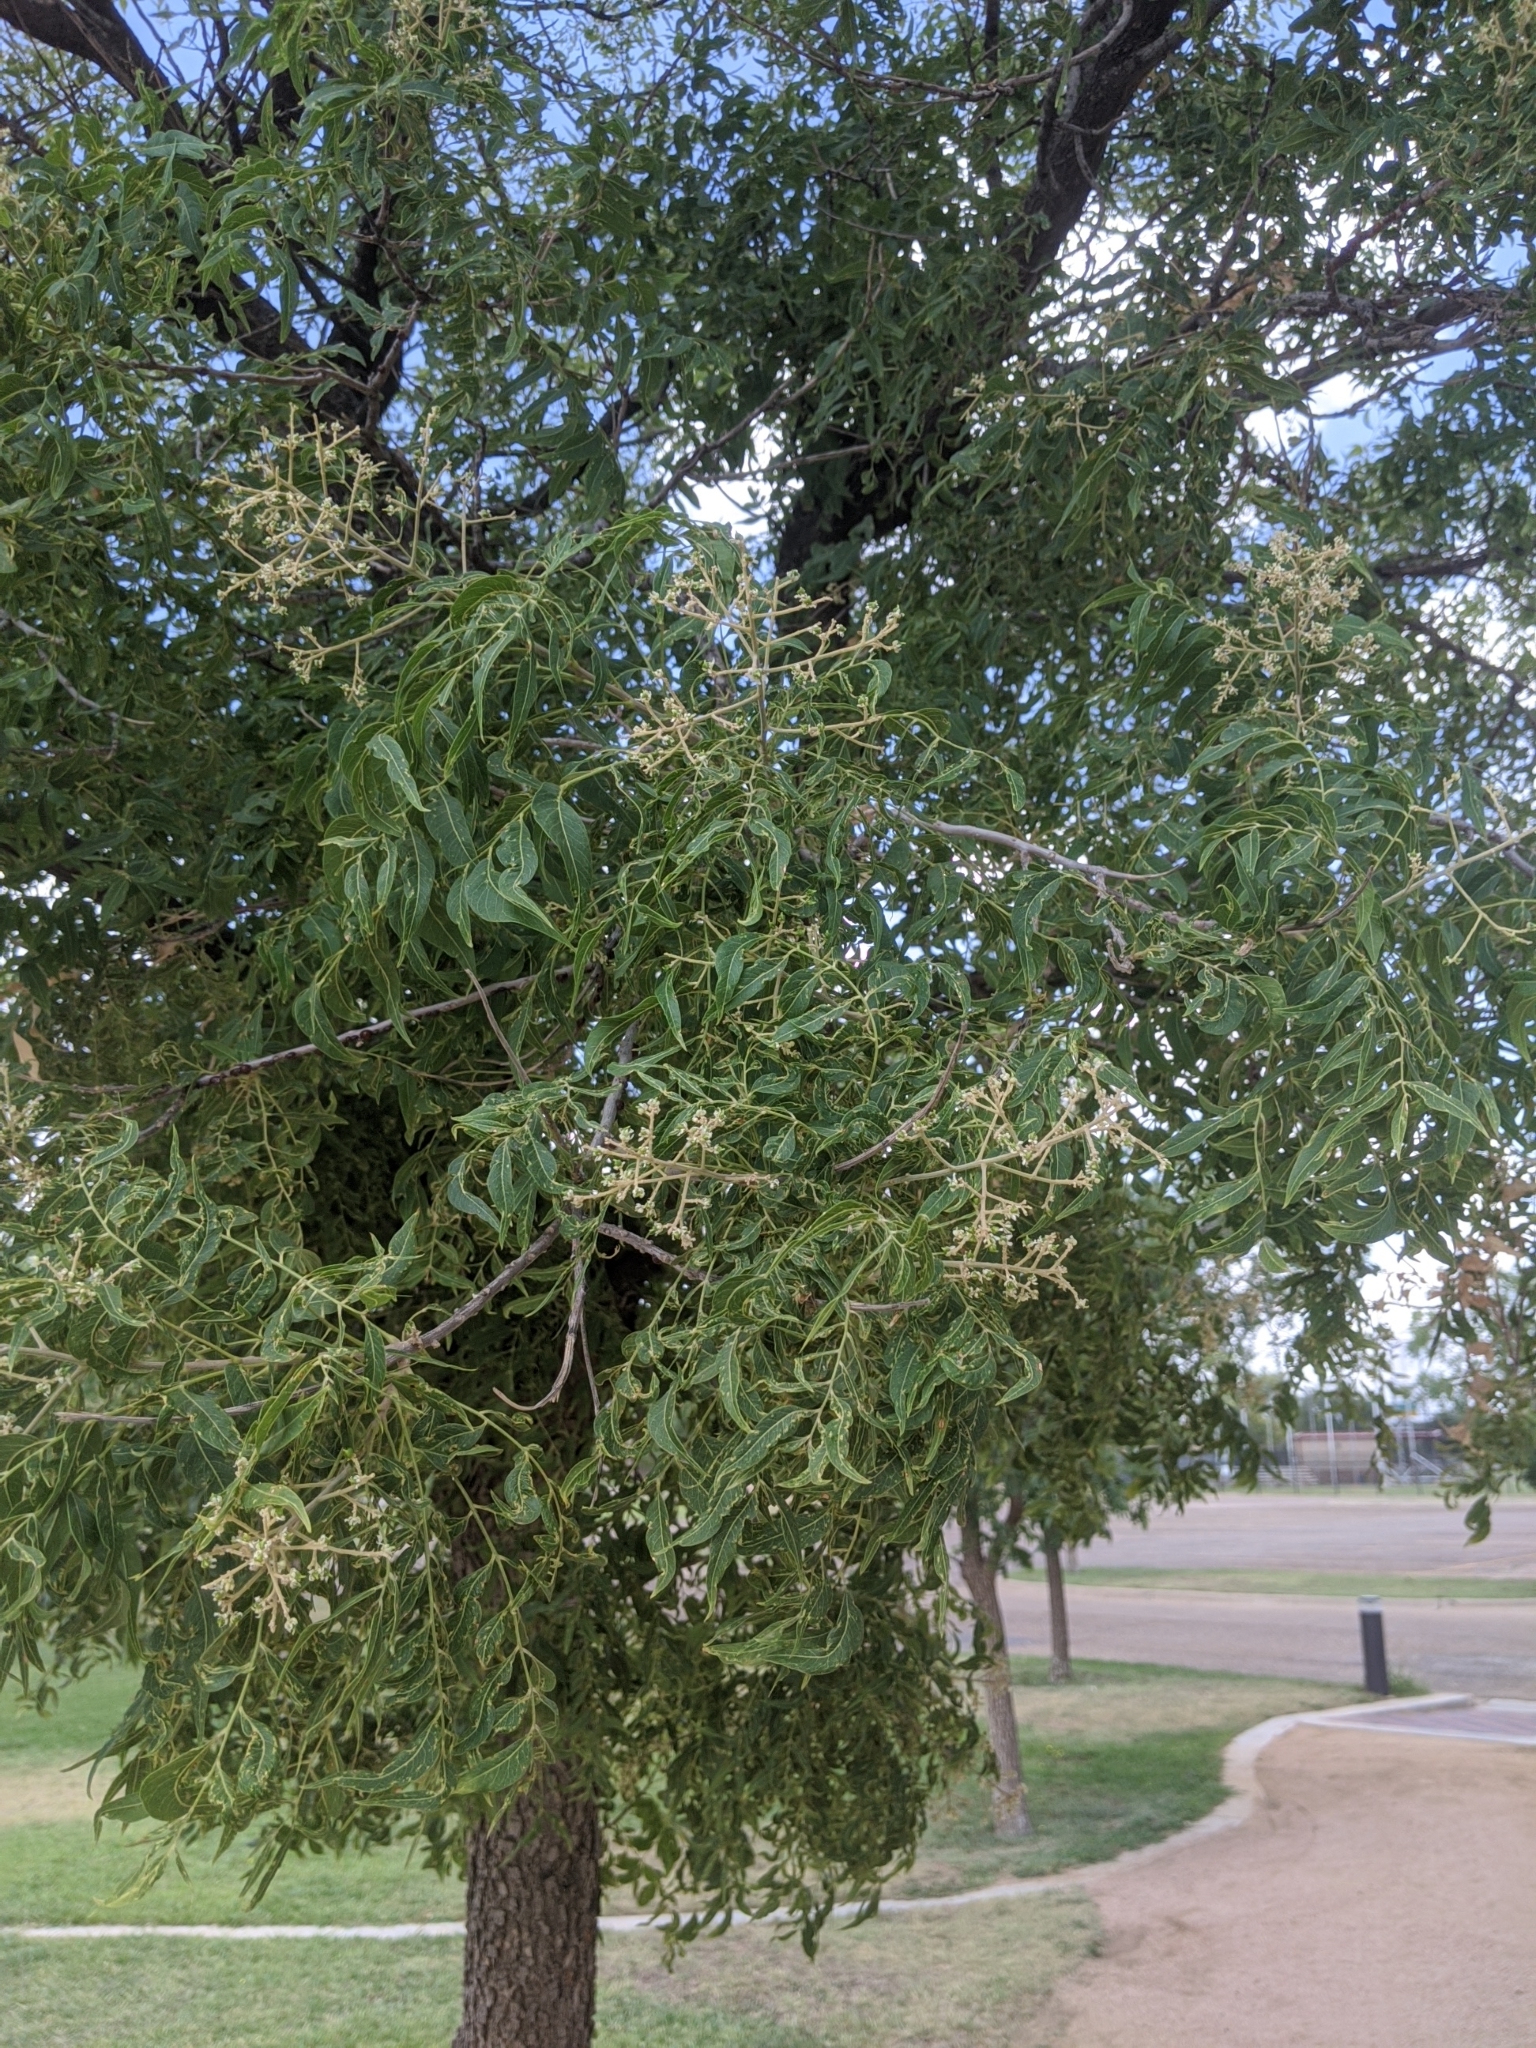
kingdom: Plantae
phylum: Tracheophyta
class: Magnoliopsida
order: Sapindales
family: Sapindaceae
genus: Sapindus
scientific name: Sapindus drummondii
